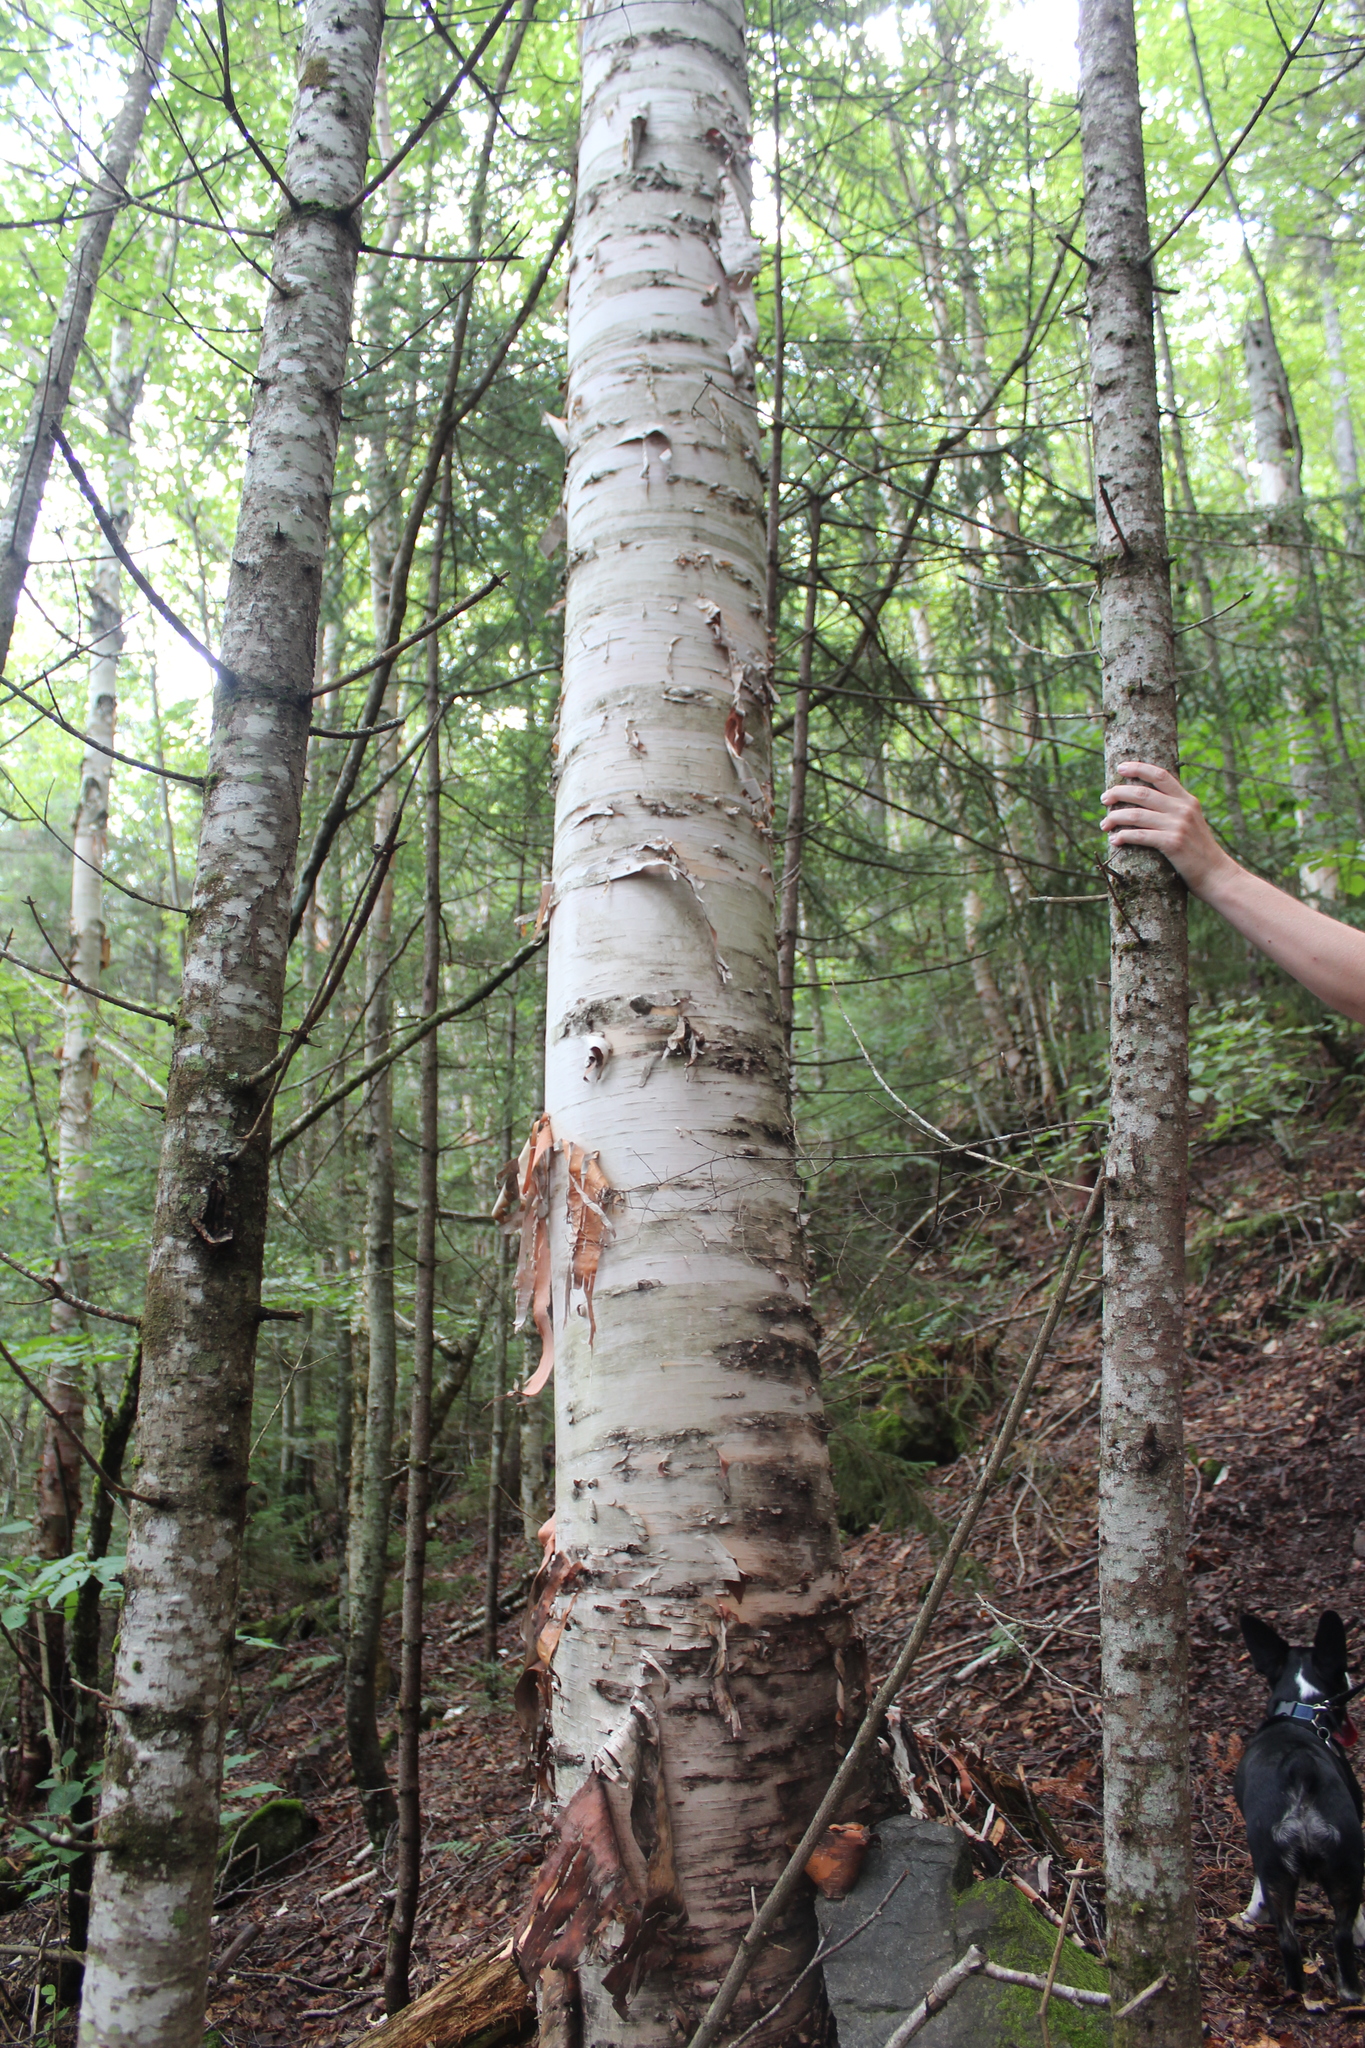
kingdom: Plantae
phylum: Tracheophyta
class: Magnoliopsida
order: Fagales
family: Betulaceae
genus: Betula
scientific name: Betula papyrifera
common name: Paper birch
